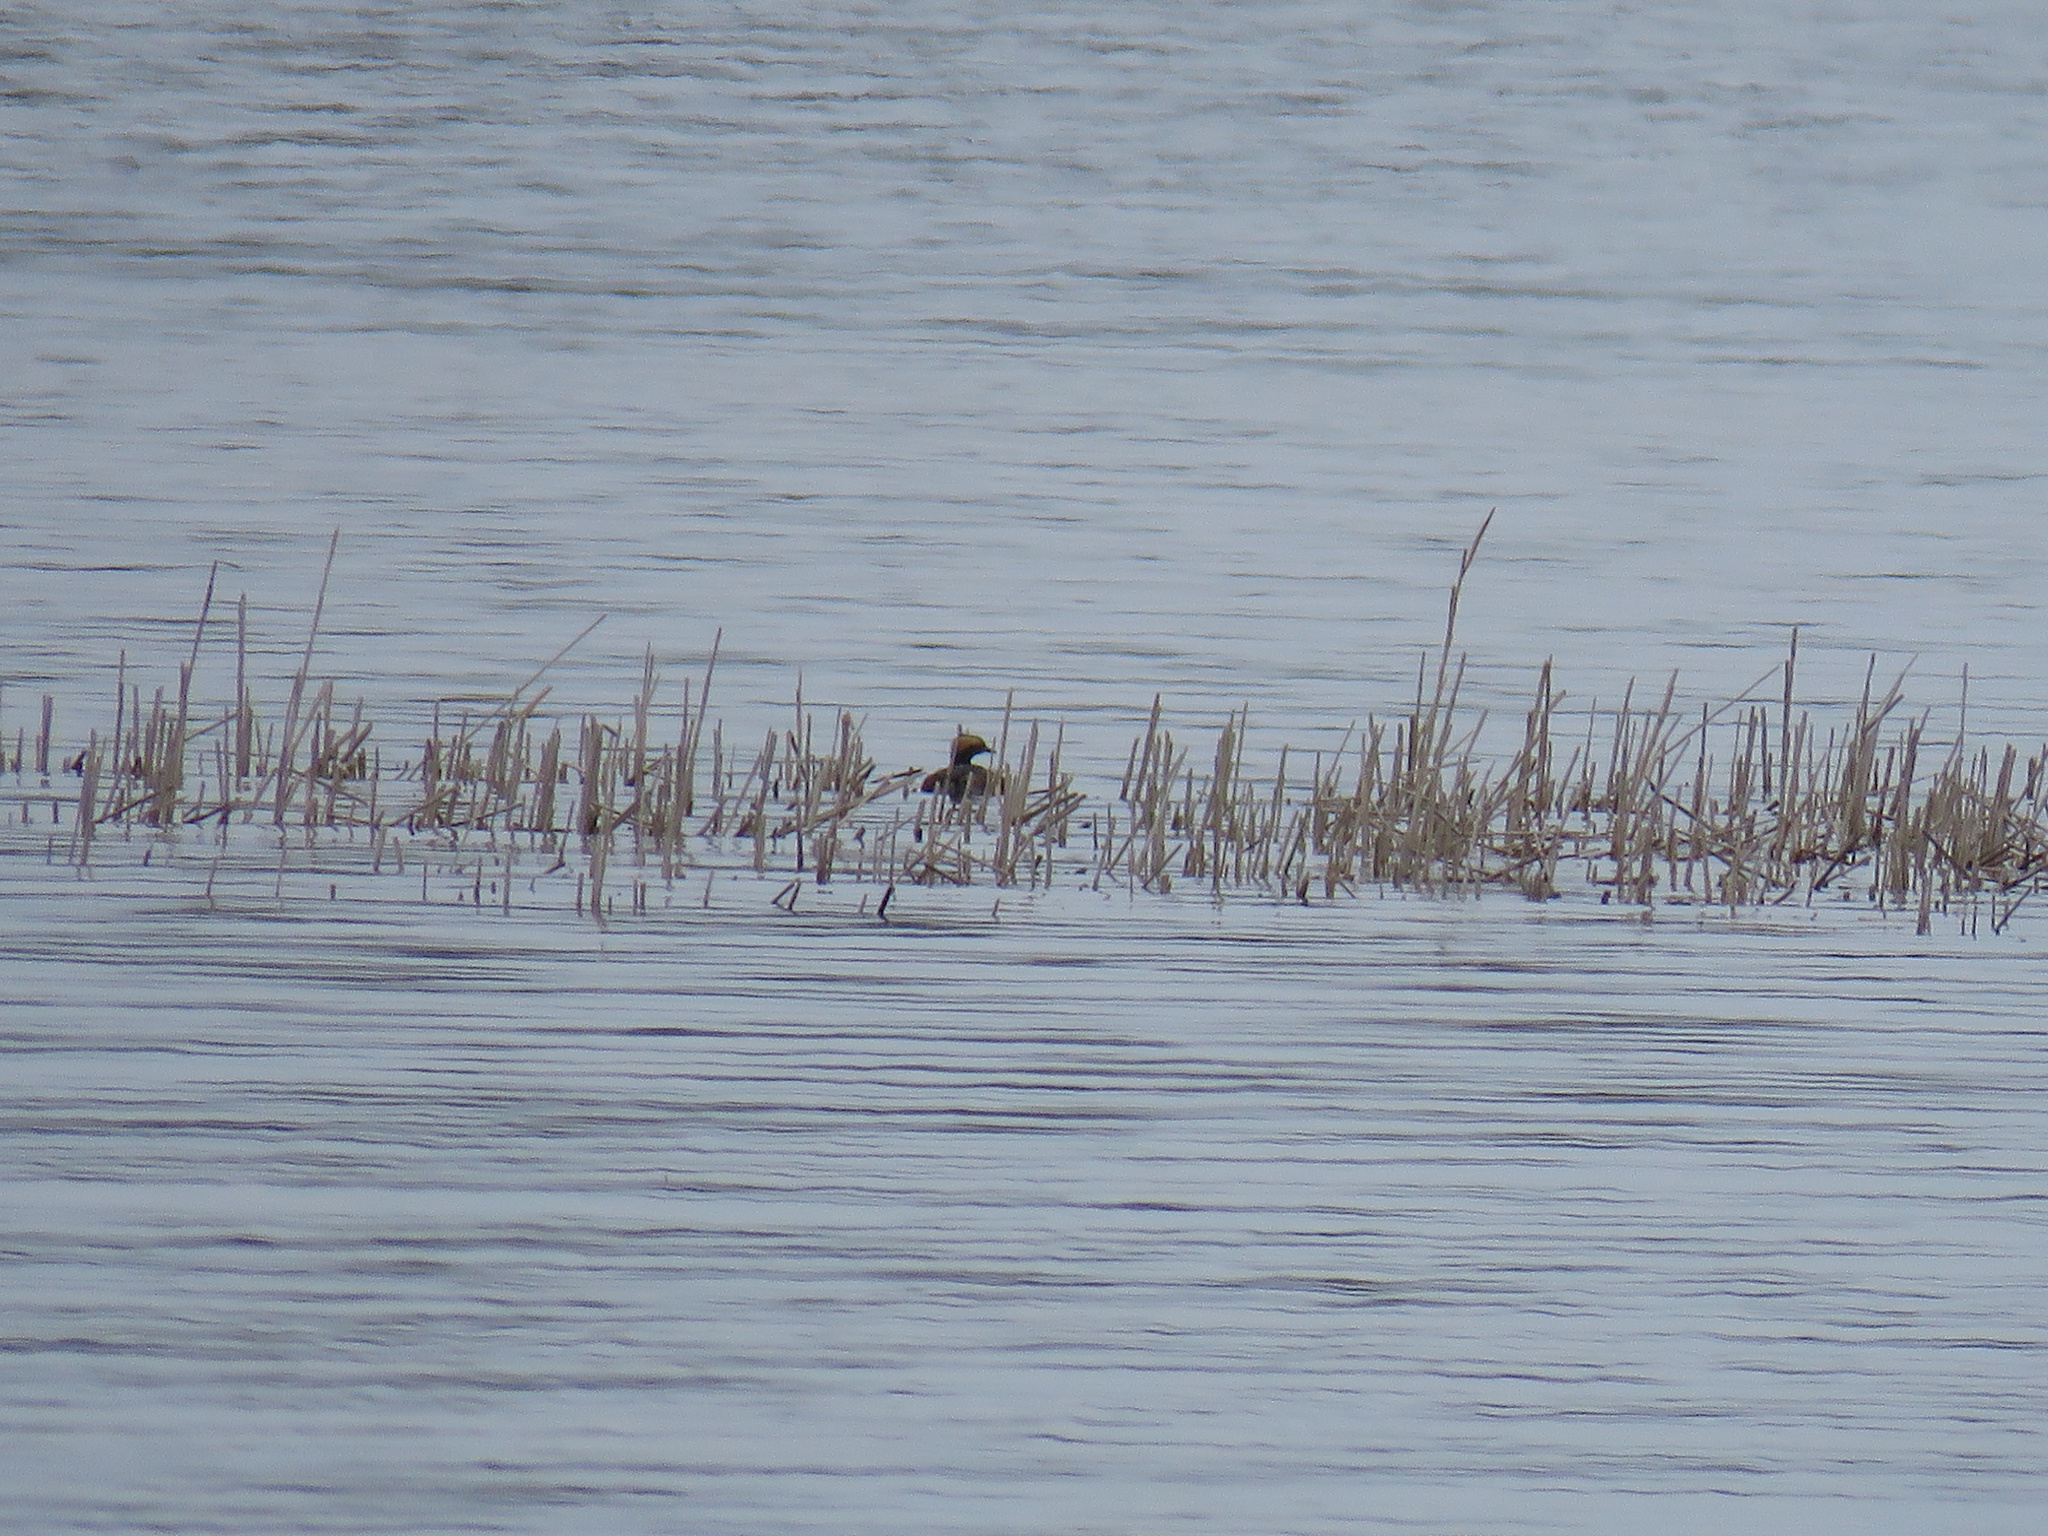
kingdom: Animalia
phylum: Chordata
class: Aves
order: Podicipediformes
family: Podicipedidae
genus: Podiceps
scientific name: Podiceps auritus
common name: Horned grebe
